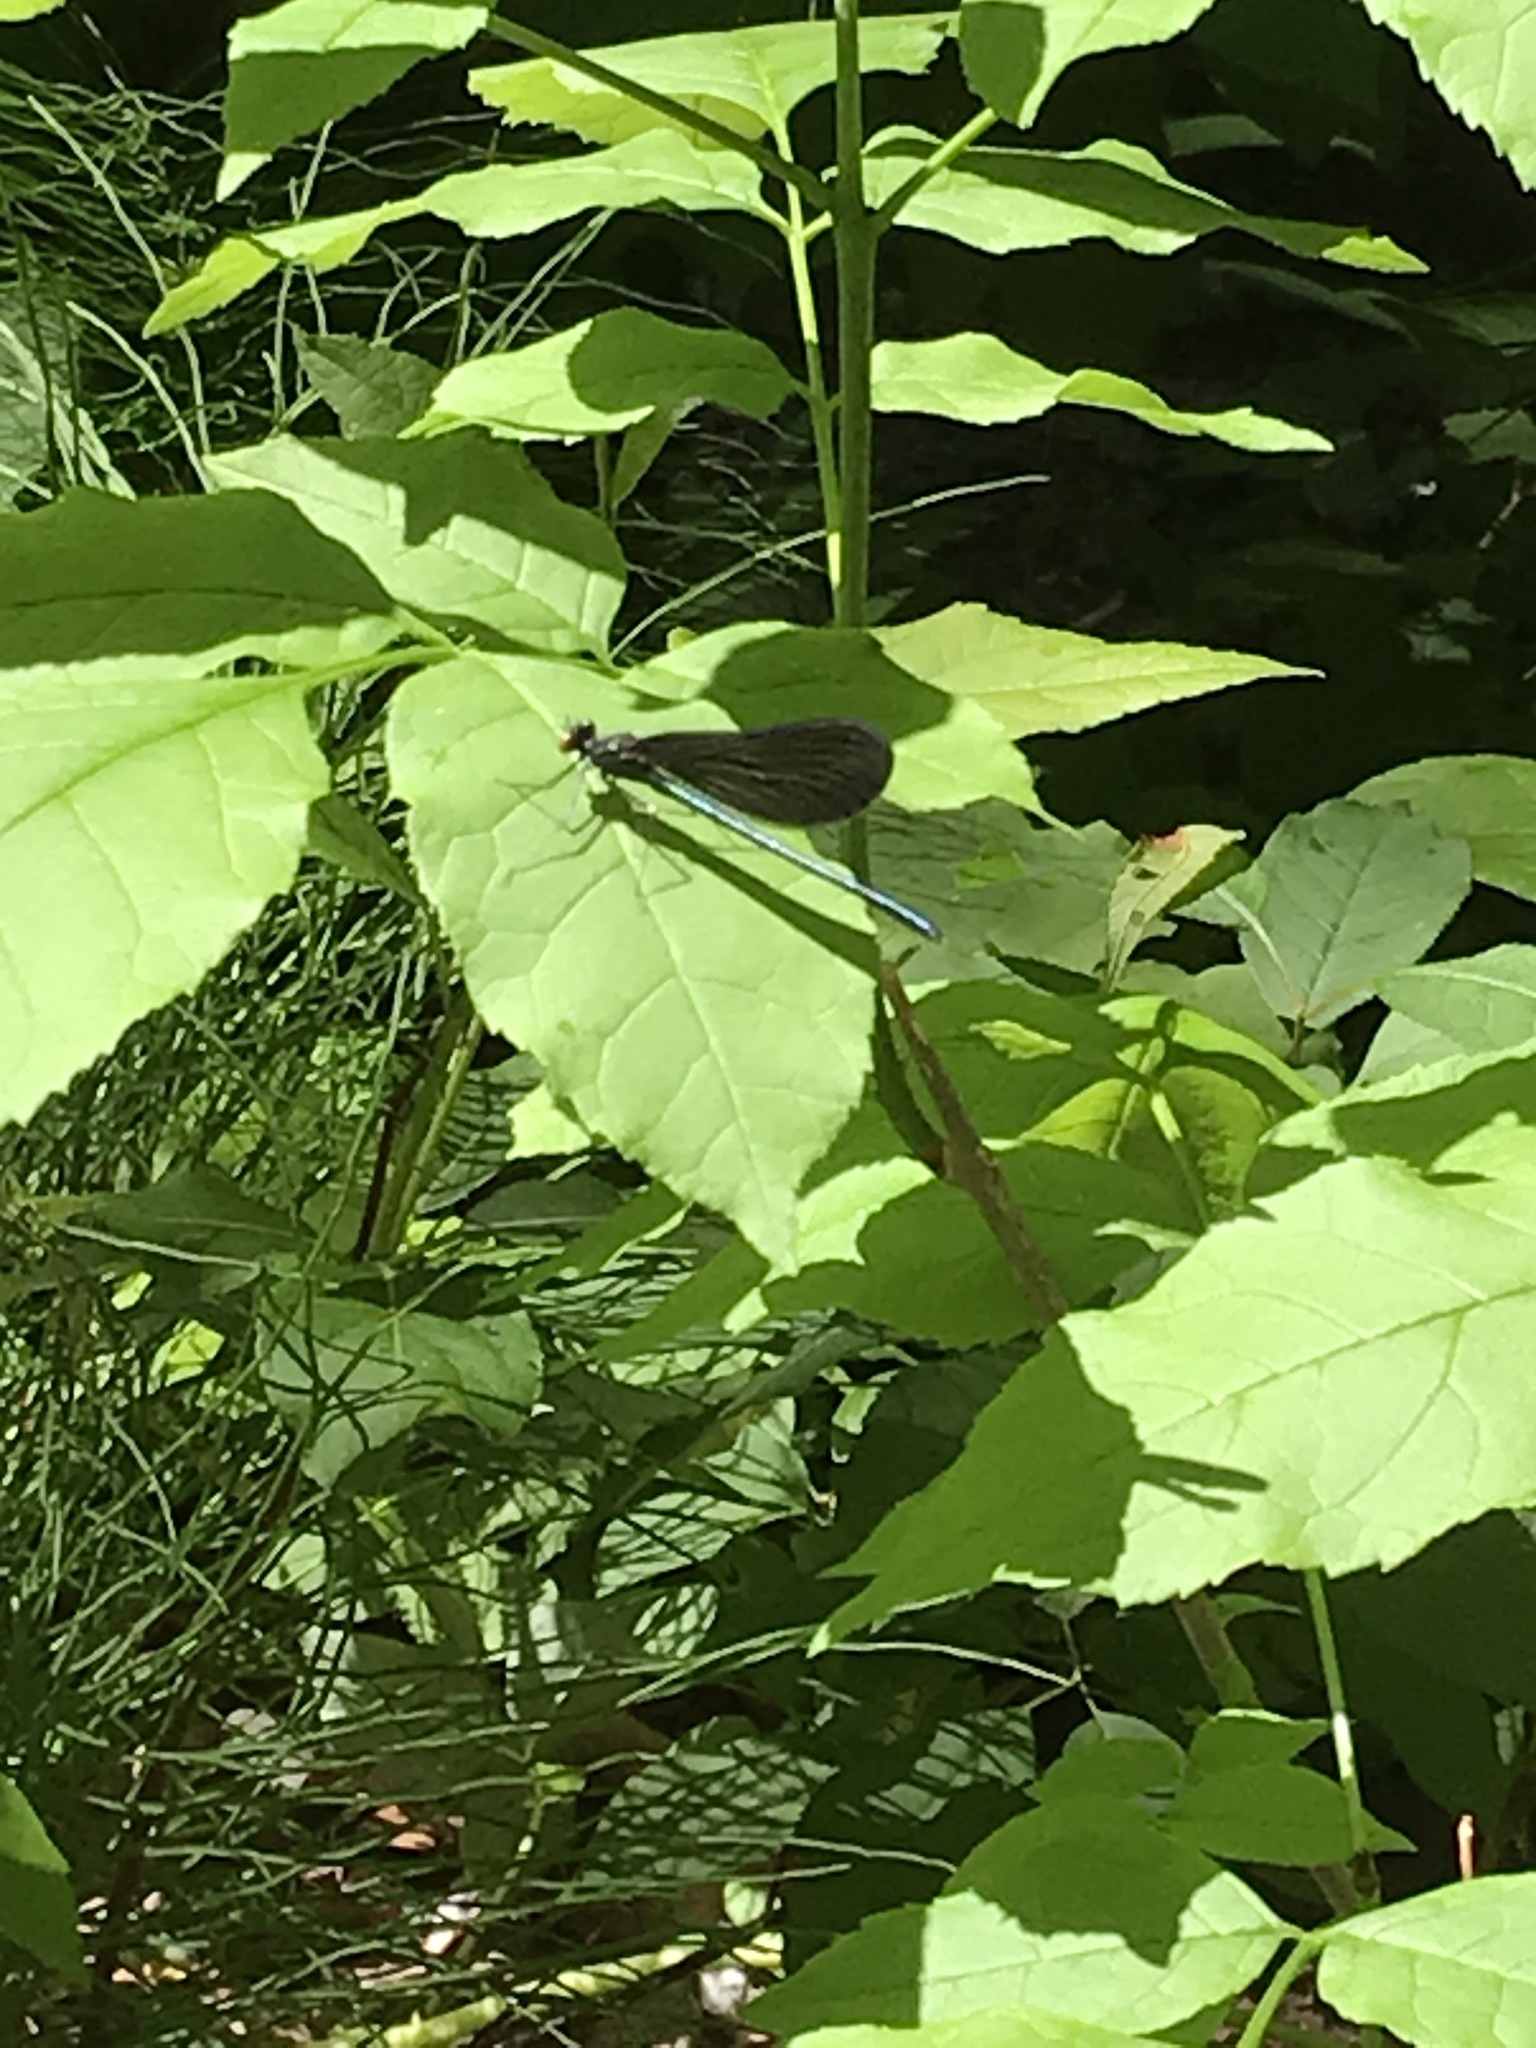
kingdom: Animalia
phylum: Arthropoda
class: Insecta
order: Odonata
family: Calopterygidae
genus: Calopteryx
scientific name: Calopteryx maculata
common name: Ebony jewelwing
